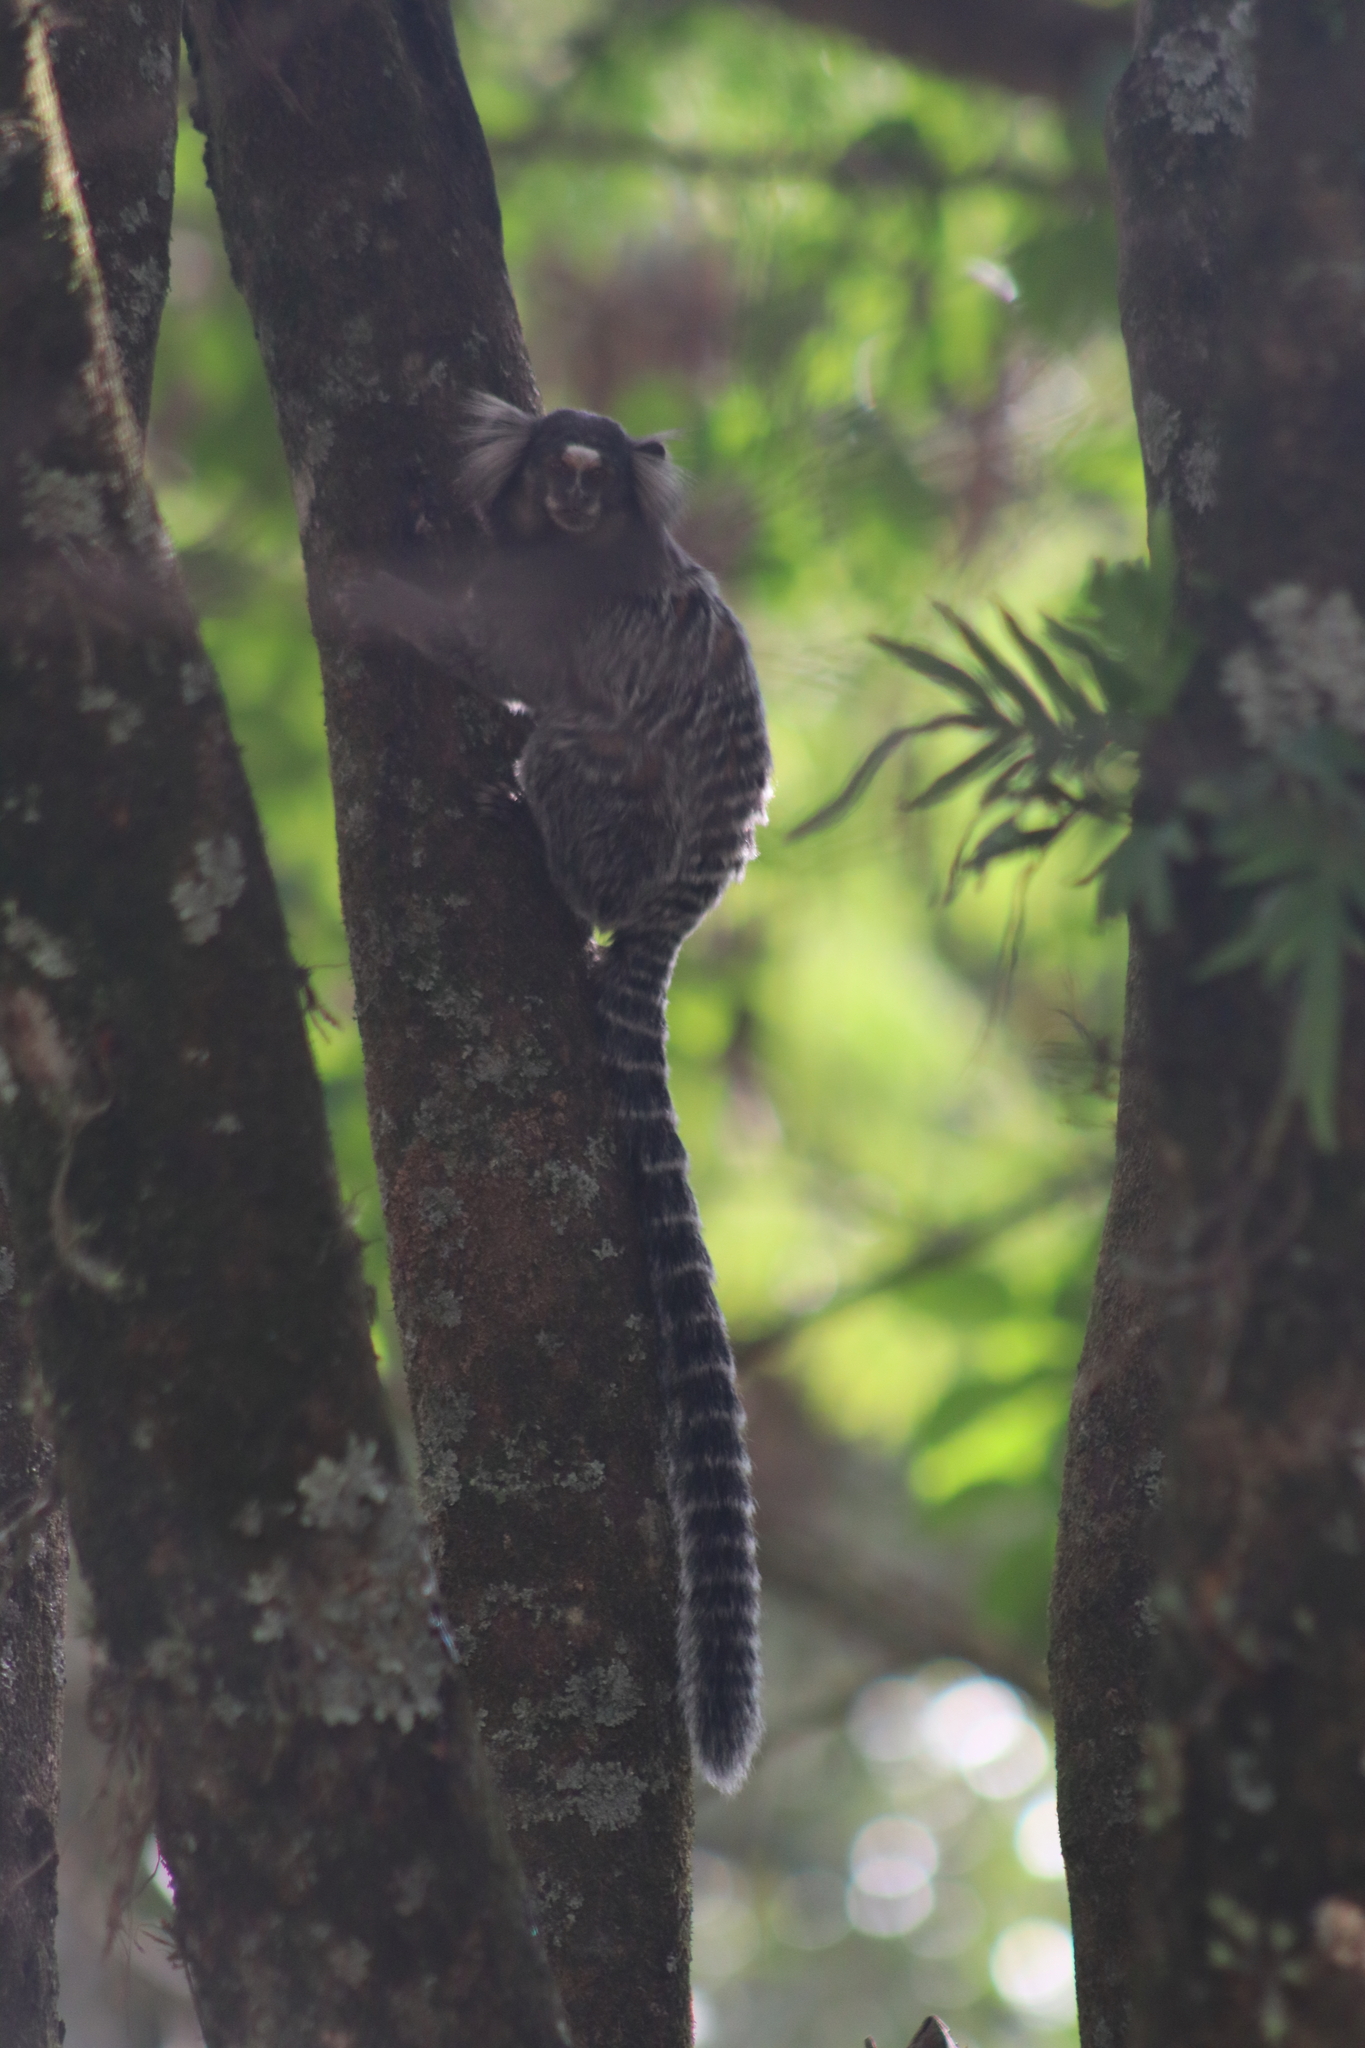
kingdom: Animalia
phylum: Chordata
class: Mammalia
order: Primates
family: Callitrichidae
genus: Callithrix
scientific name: Callithrix jacchus
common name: Common marmoset
